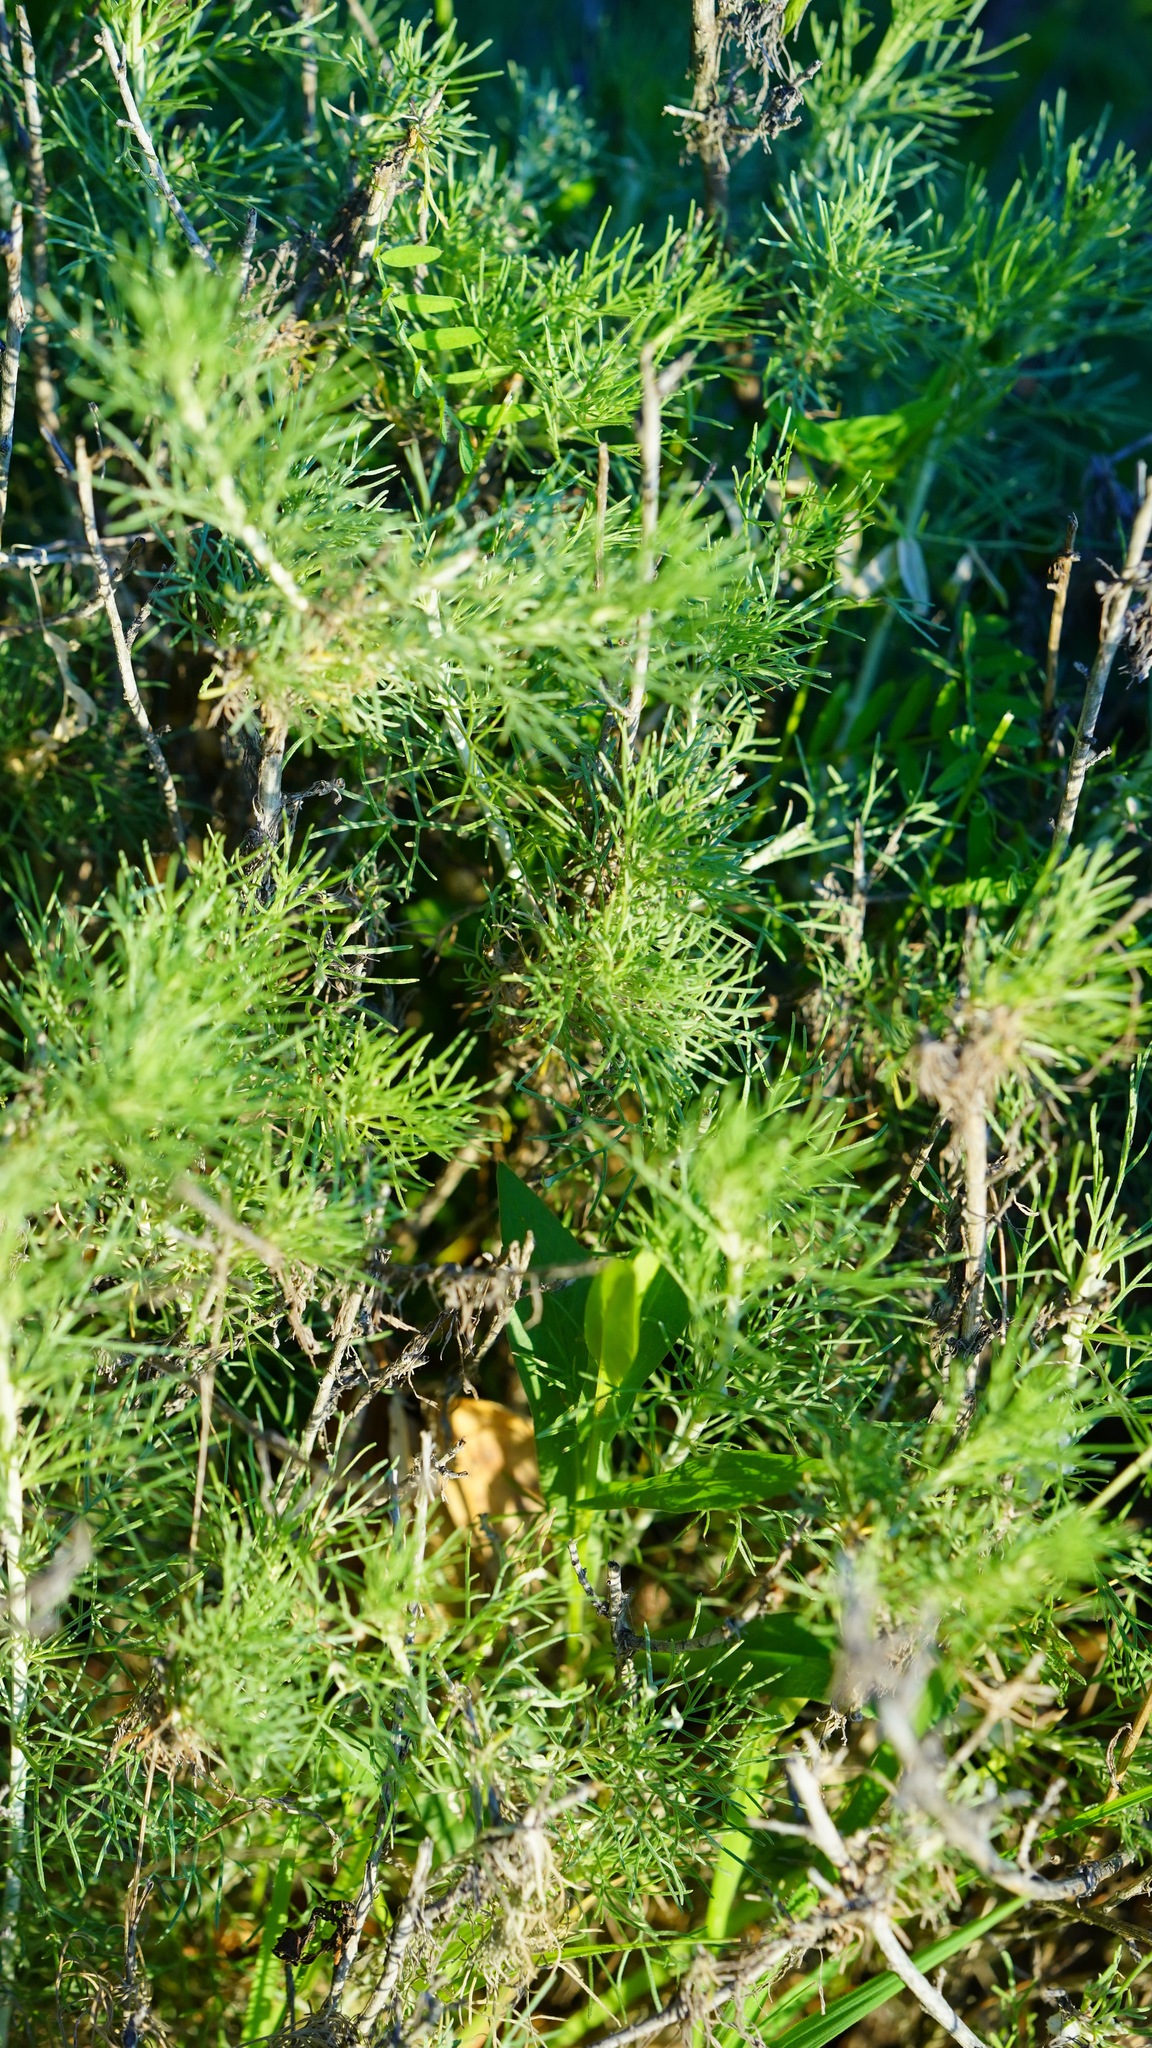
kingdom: Plantae
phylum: Tracheophyta
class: Magnoliopsida
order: Asterales
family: Asteraceae
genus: Artemisia
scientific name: Artemisia californica
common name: California sagebrush
